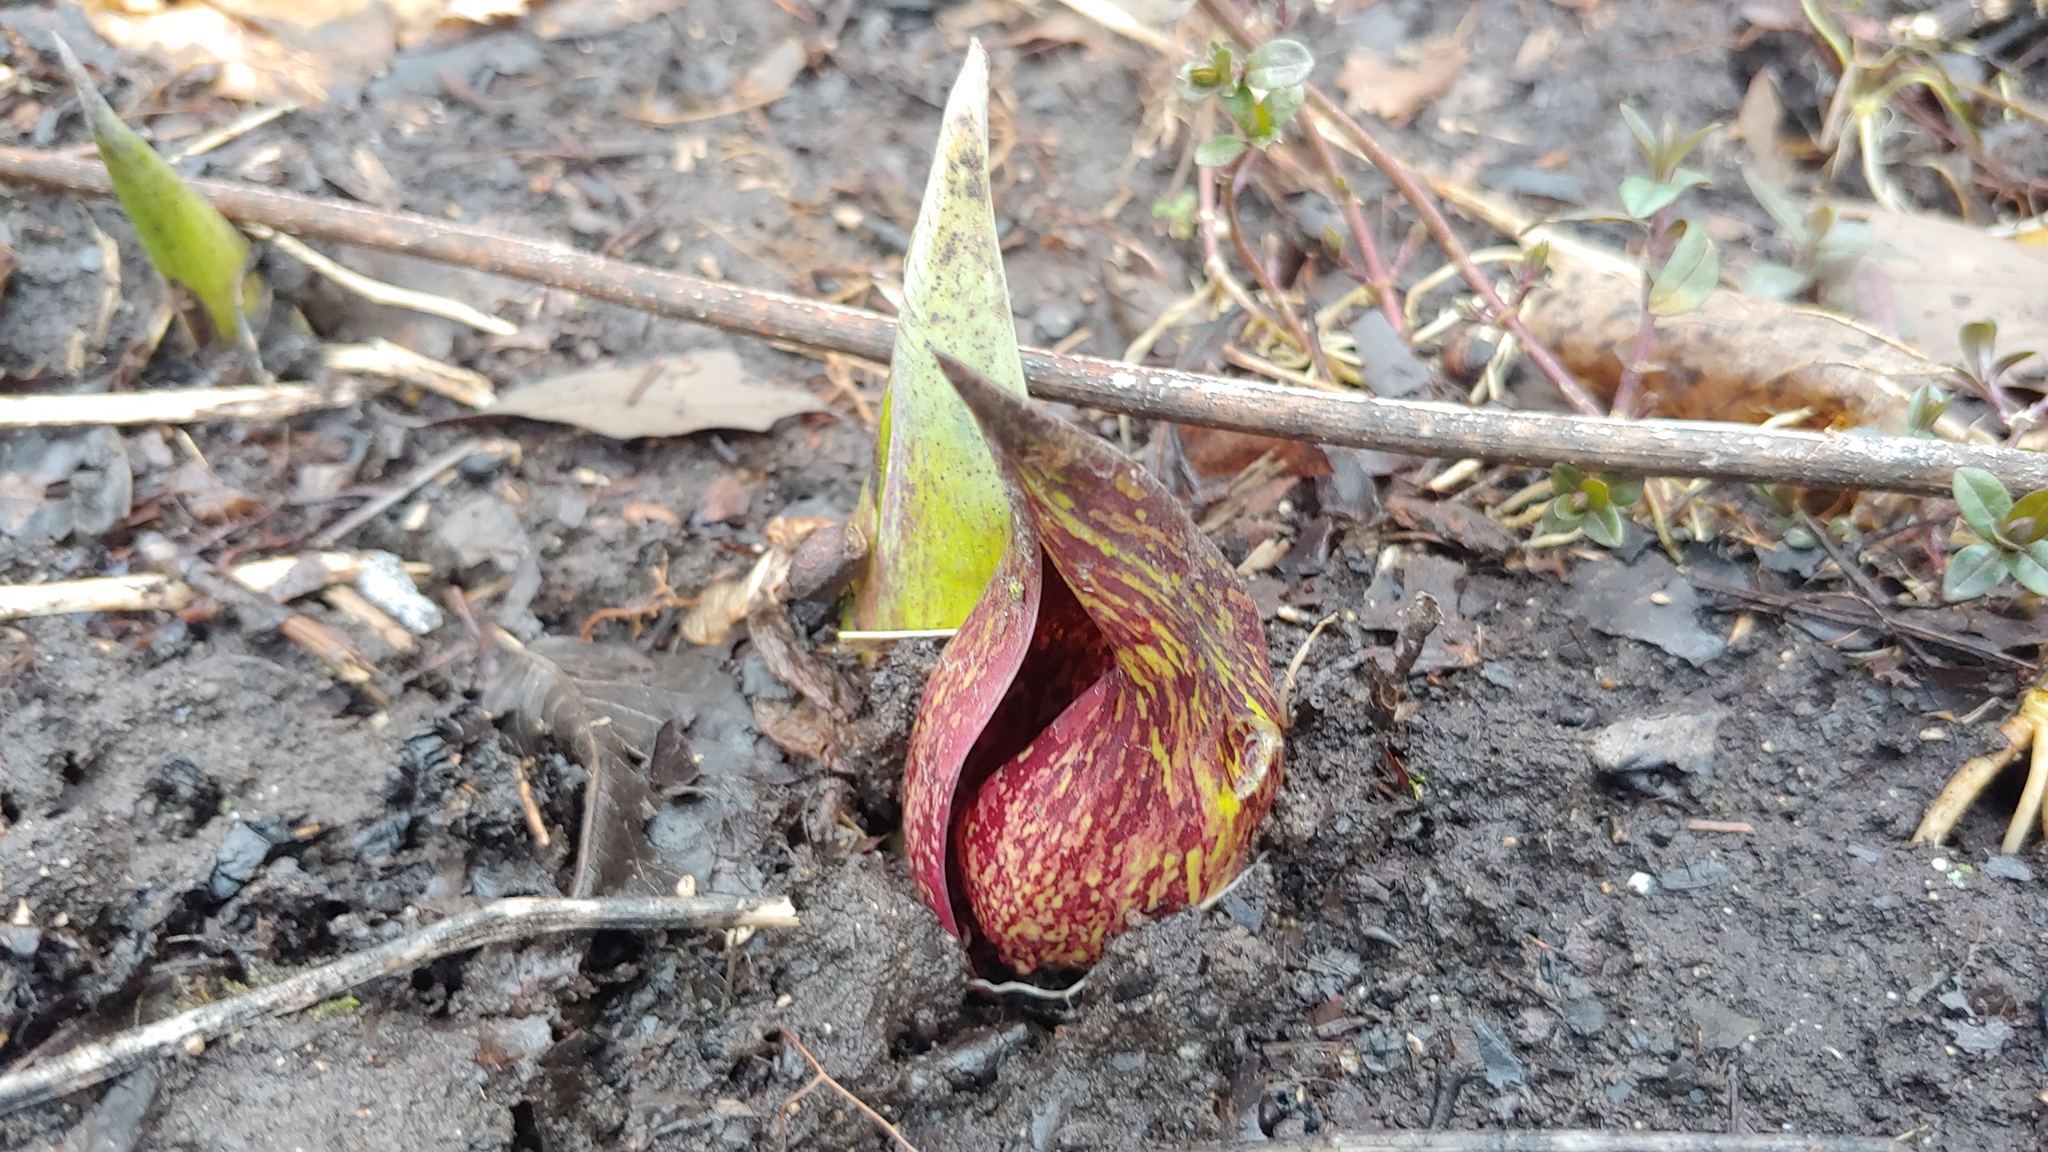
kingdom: Plantae
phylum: Tracheophyta
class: Liliopsida
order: Alismatales
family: Araceae
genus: Symplocarpus
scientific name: Symplocarpus foetidus
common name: Eastern skunk cabbage
